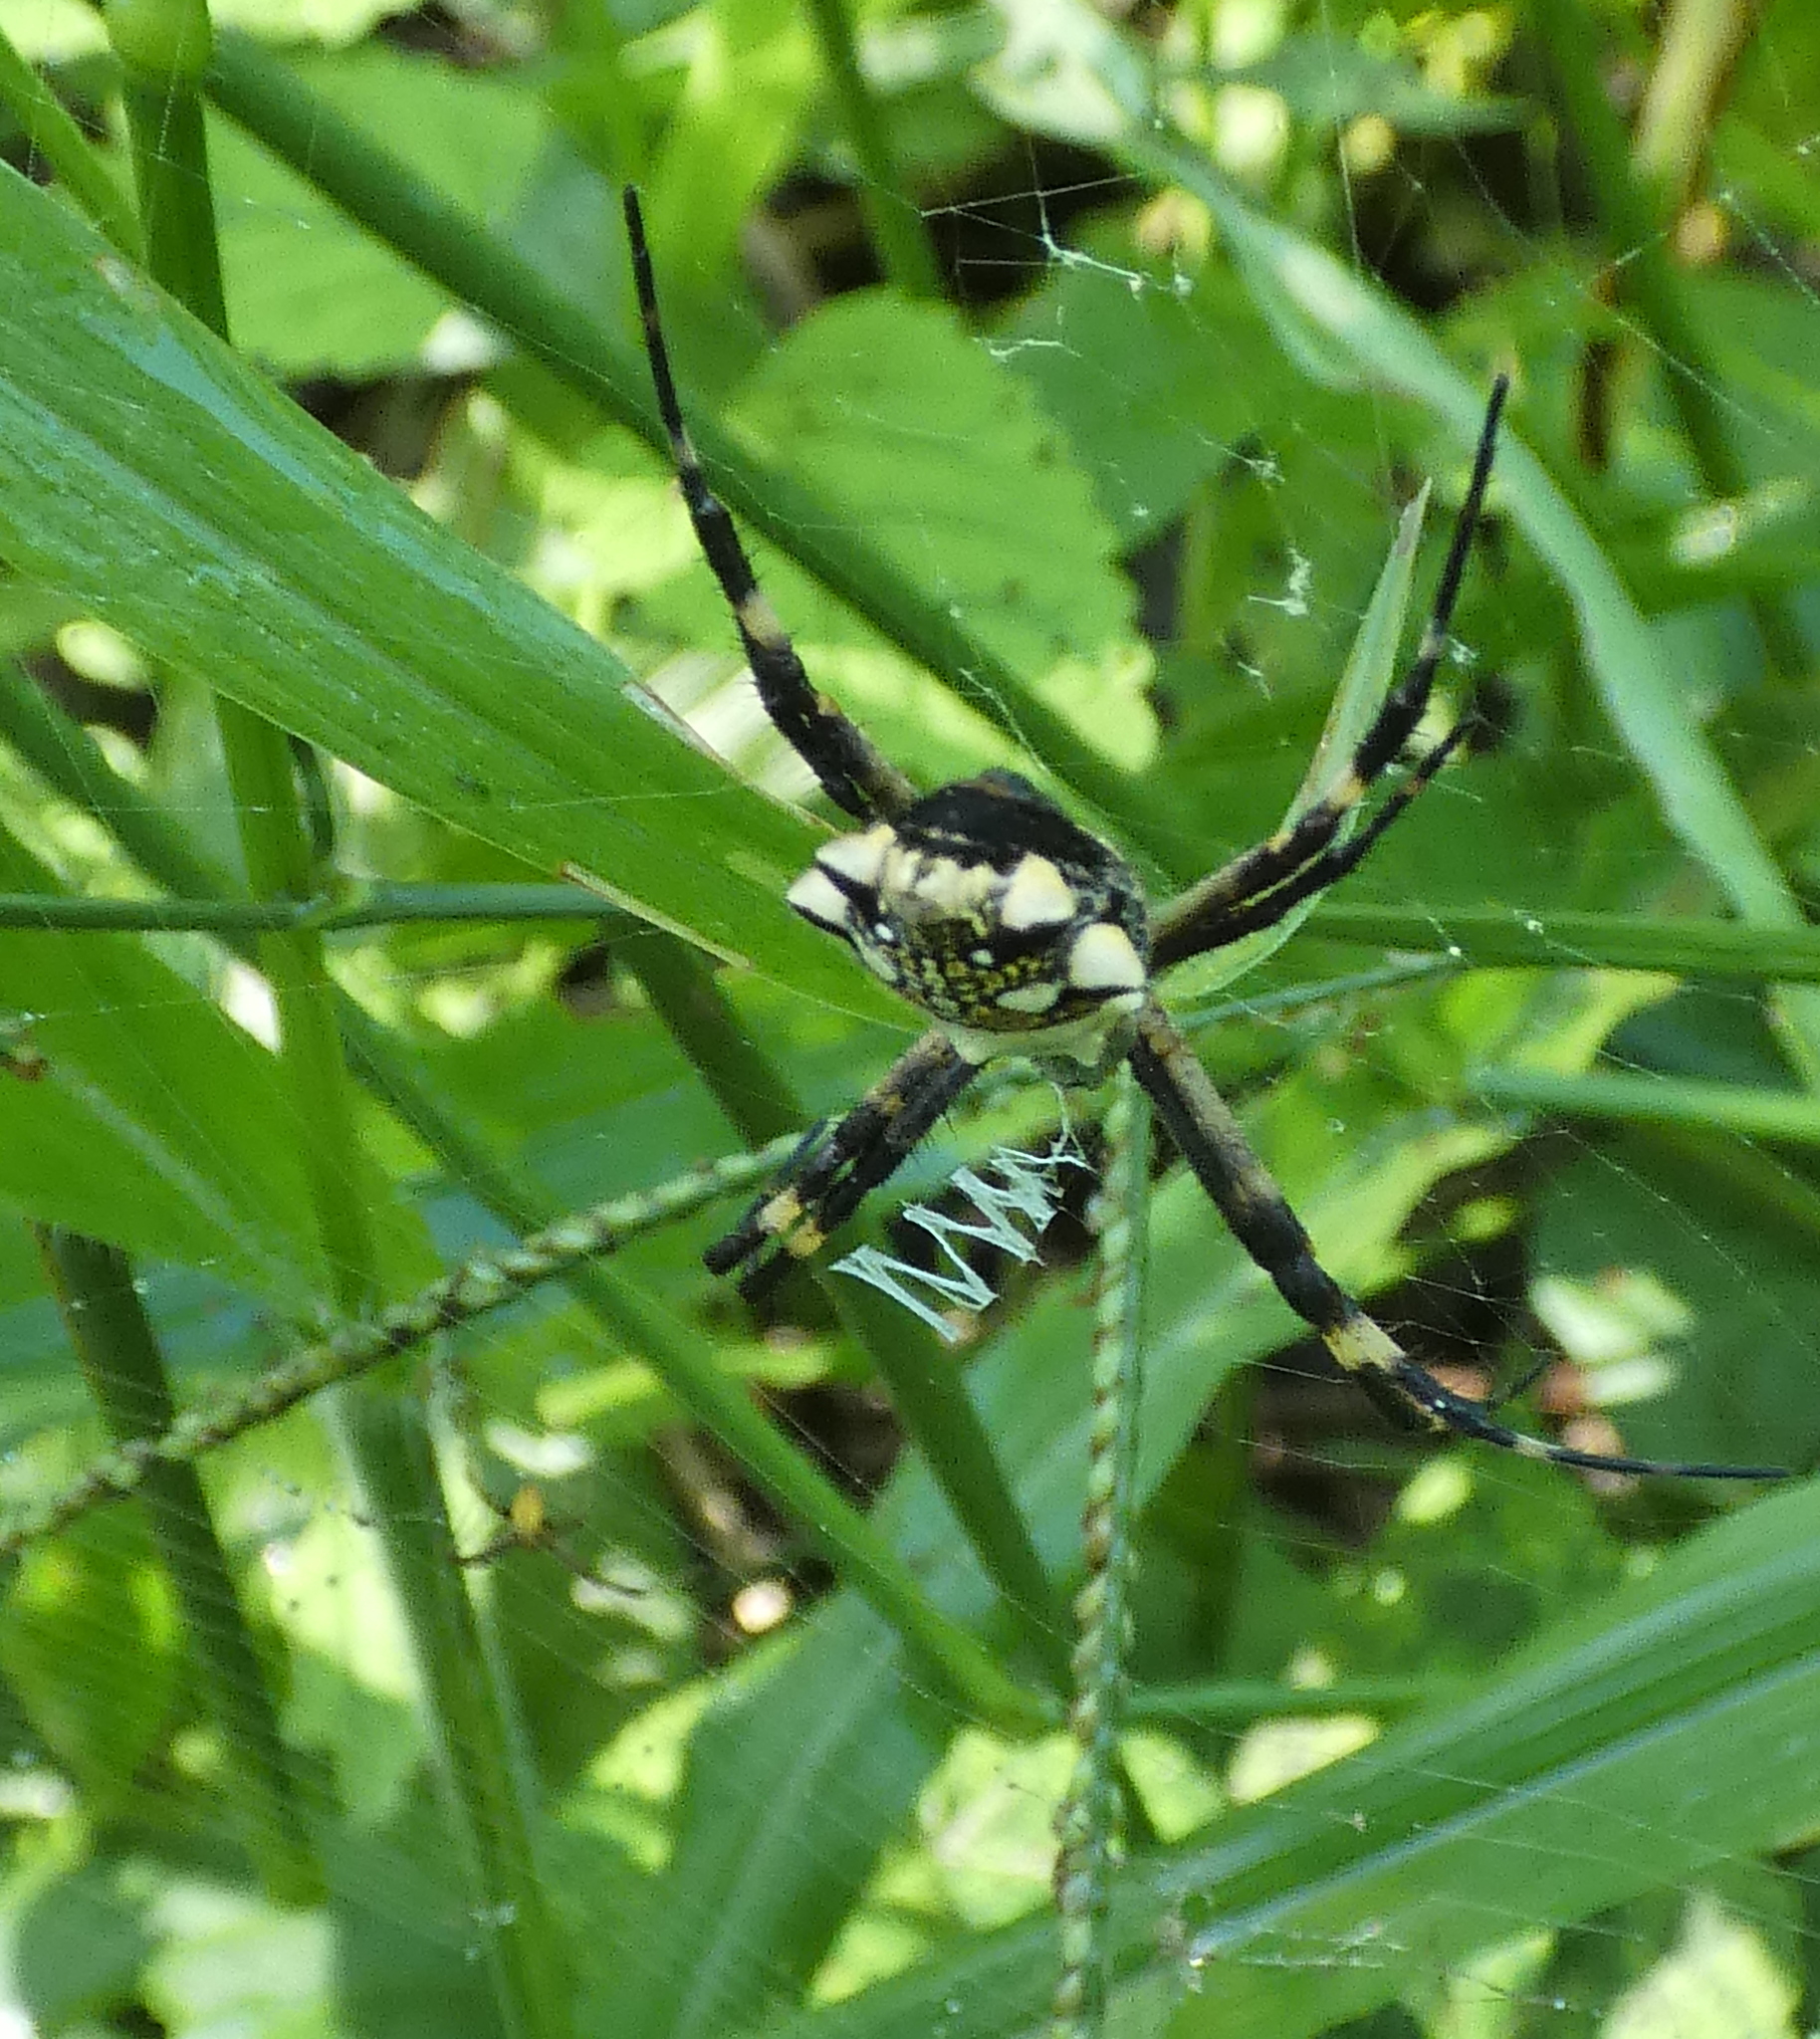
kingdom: Animalia
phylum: Arthropoda
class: Arachnida
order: Araneae
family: Araneidae
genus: Argiope
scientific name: Argiope argentata
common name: Orb weavers
